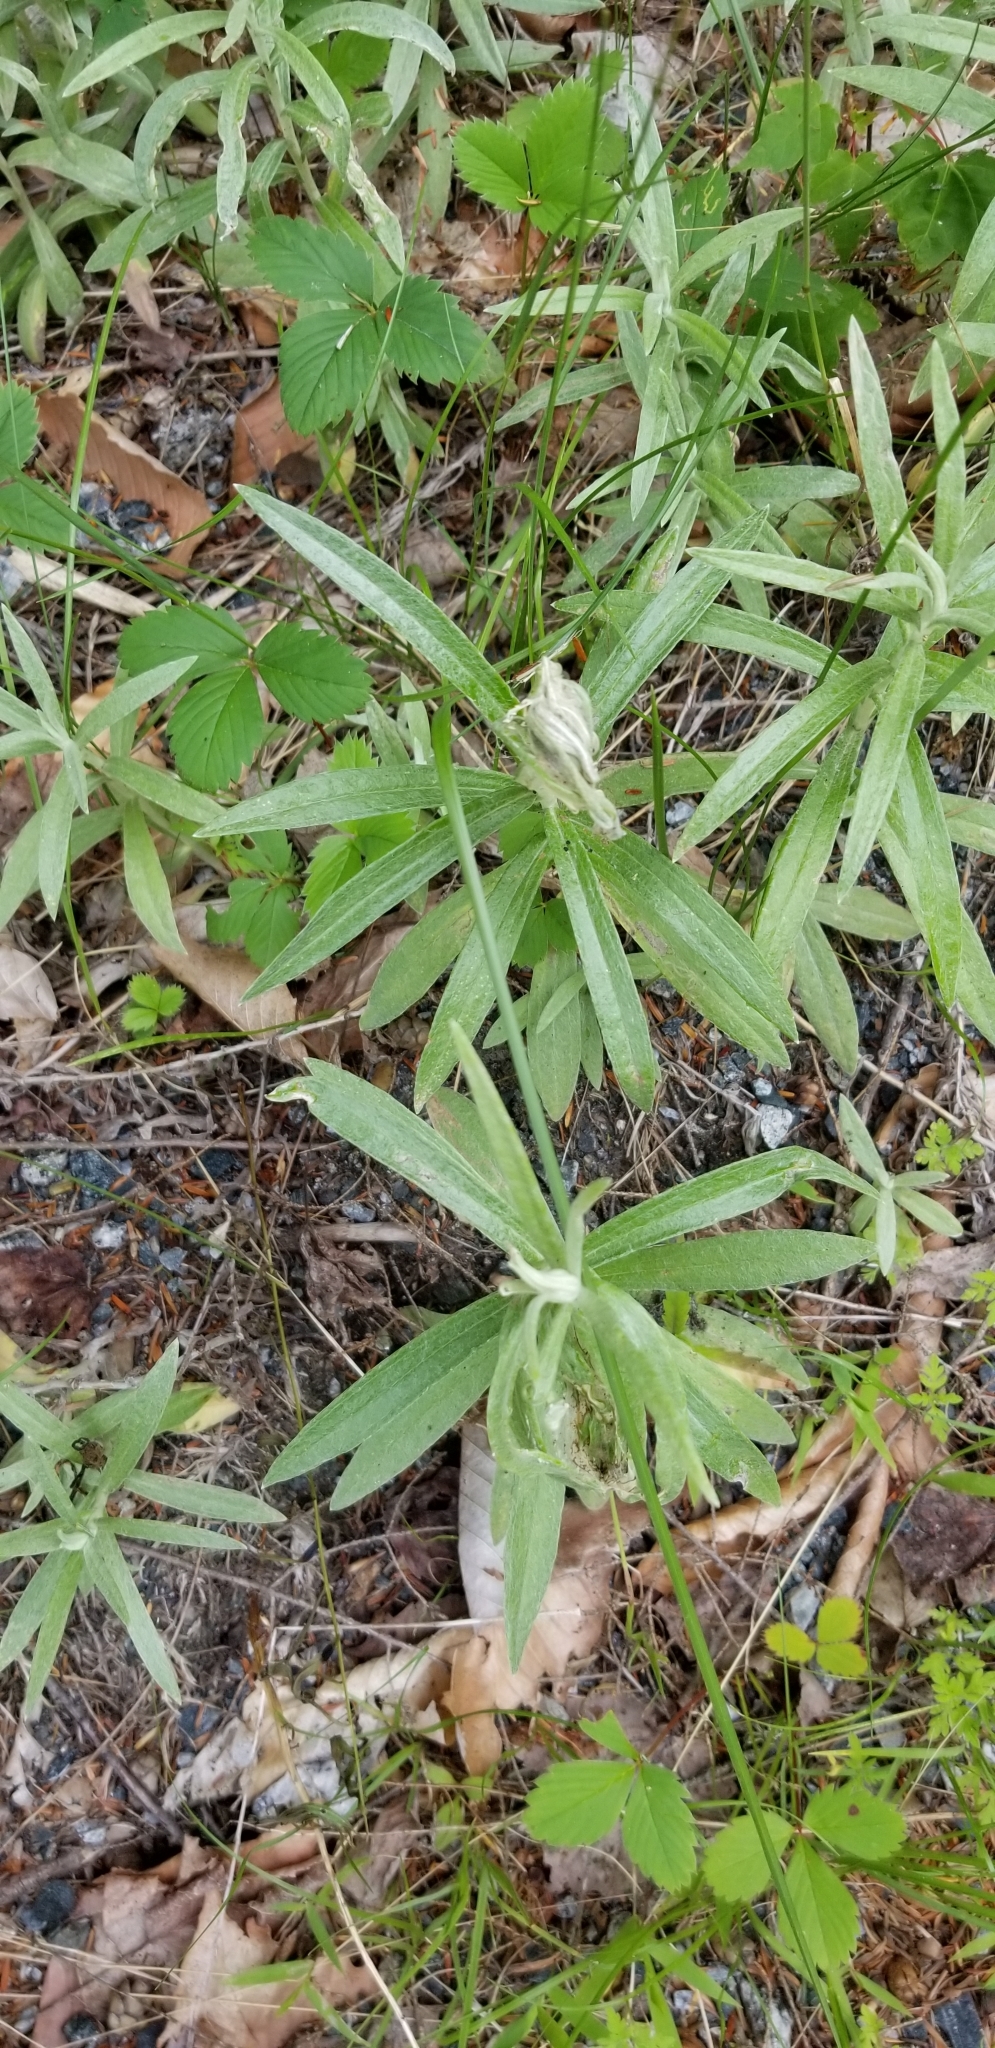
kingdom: Plantae
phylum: Tracheophyta
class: Magnoliopsida
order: Asterales
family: Asteraceae
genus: Anaphalis
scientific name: Anaphalis margaritacea
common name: Pearly everlasting
